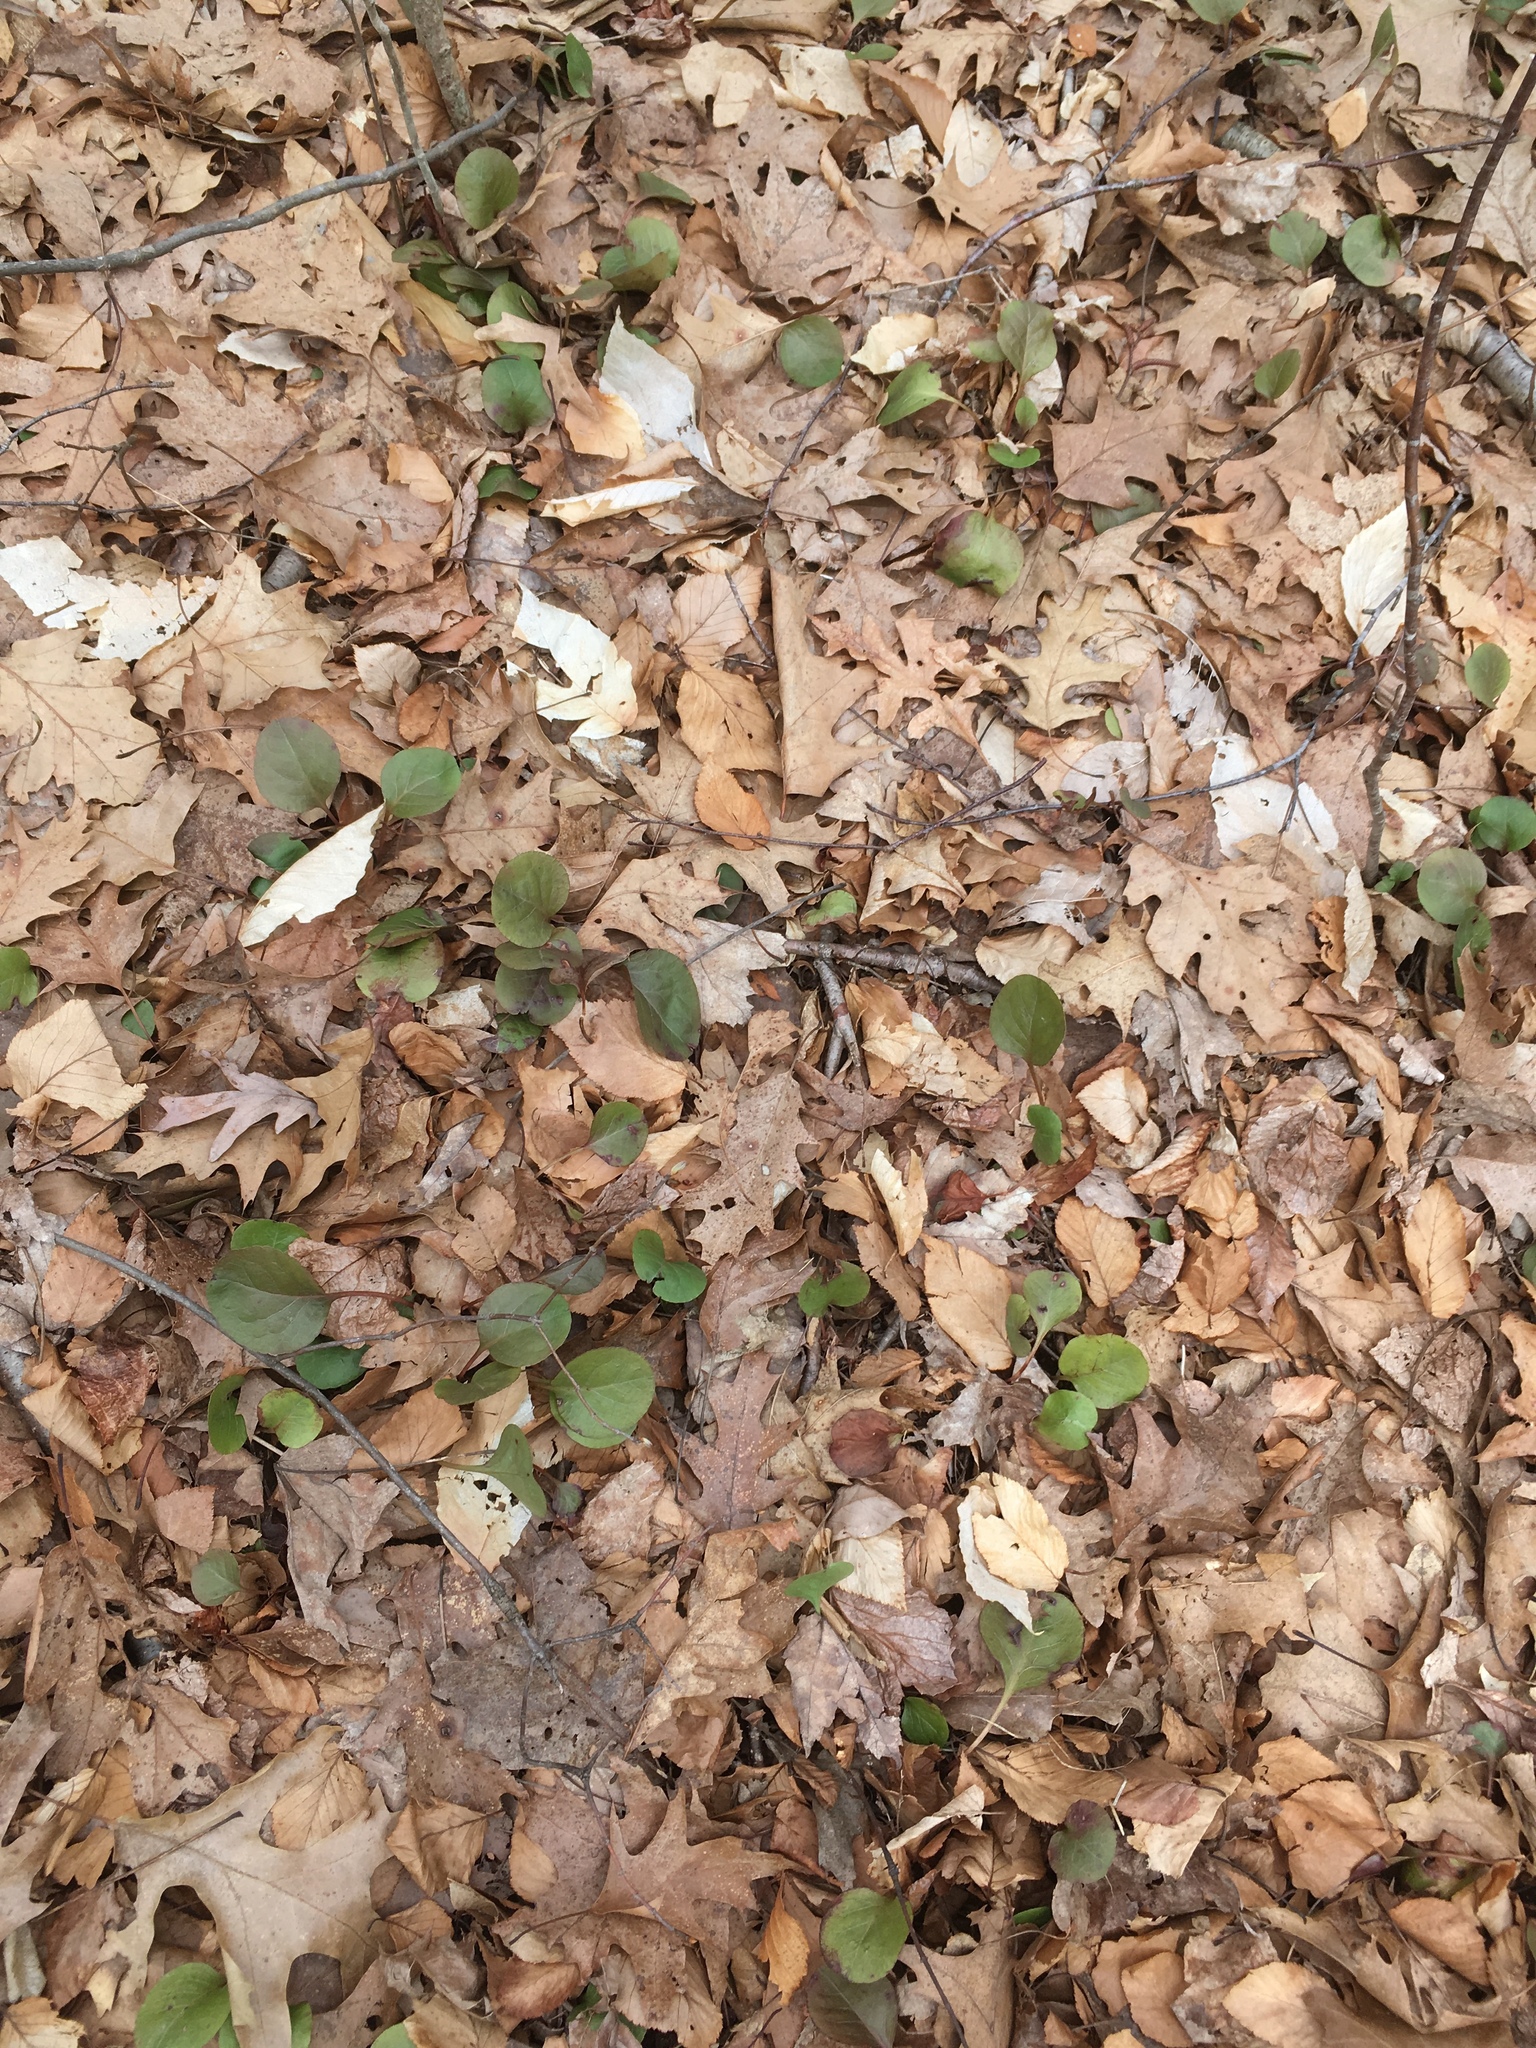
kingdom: Plantae
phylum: Tracheophyta
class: Magnoliopsida
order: Ericales
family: Ericaceae
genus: Pyrola
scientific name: Pyrola elliptica
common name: Shinleaf
